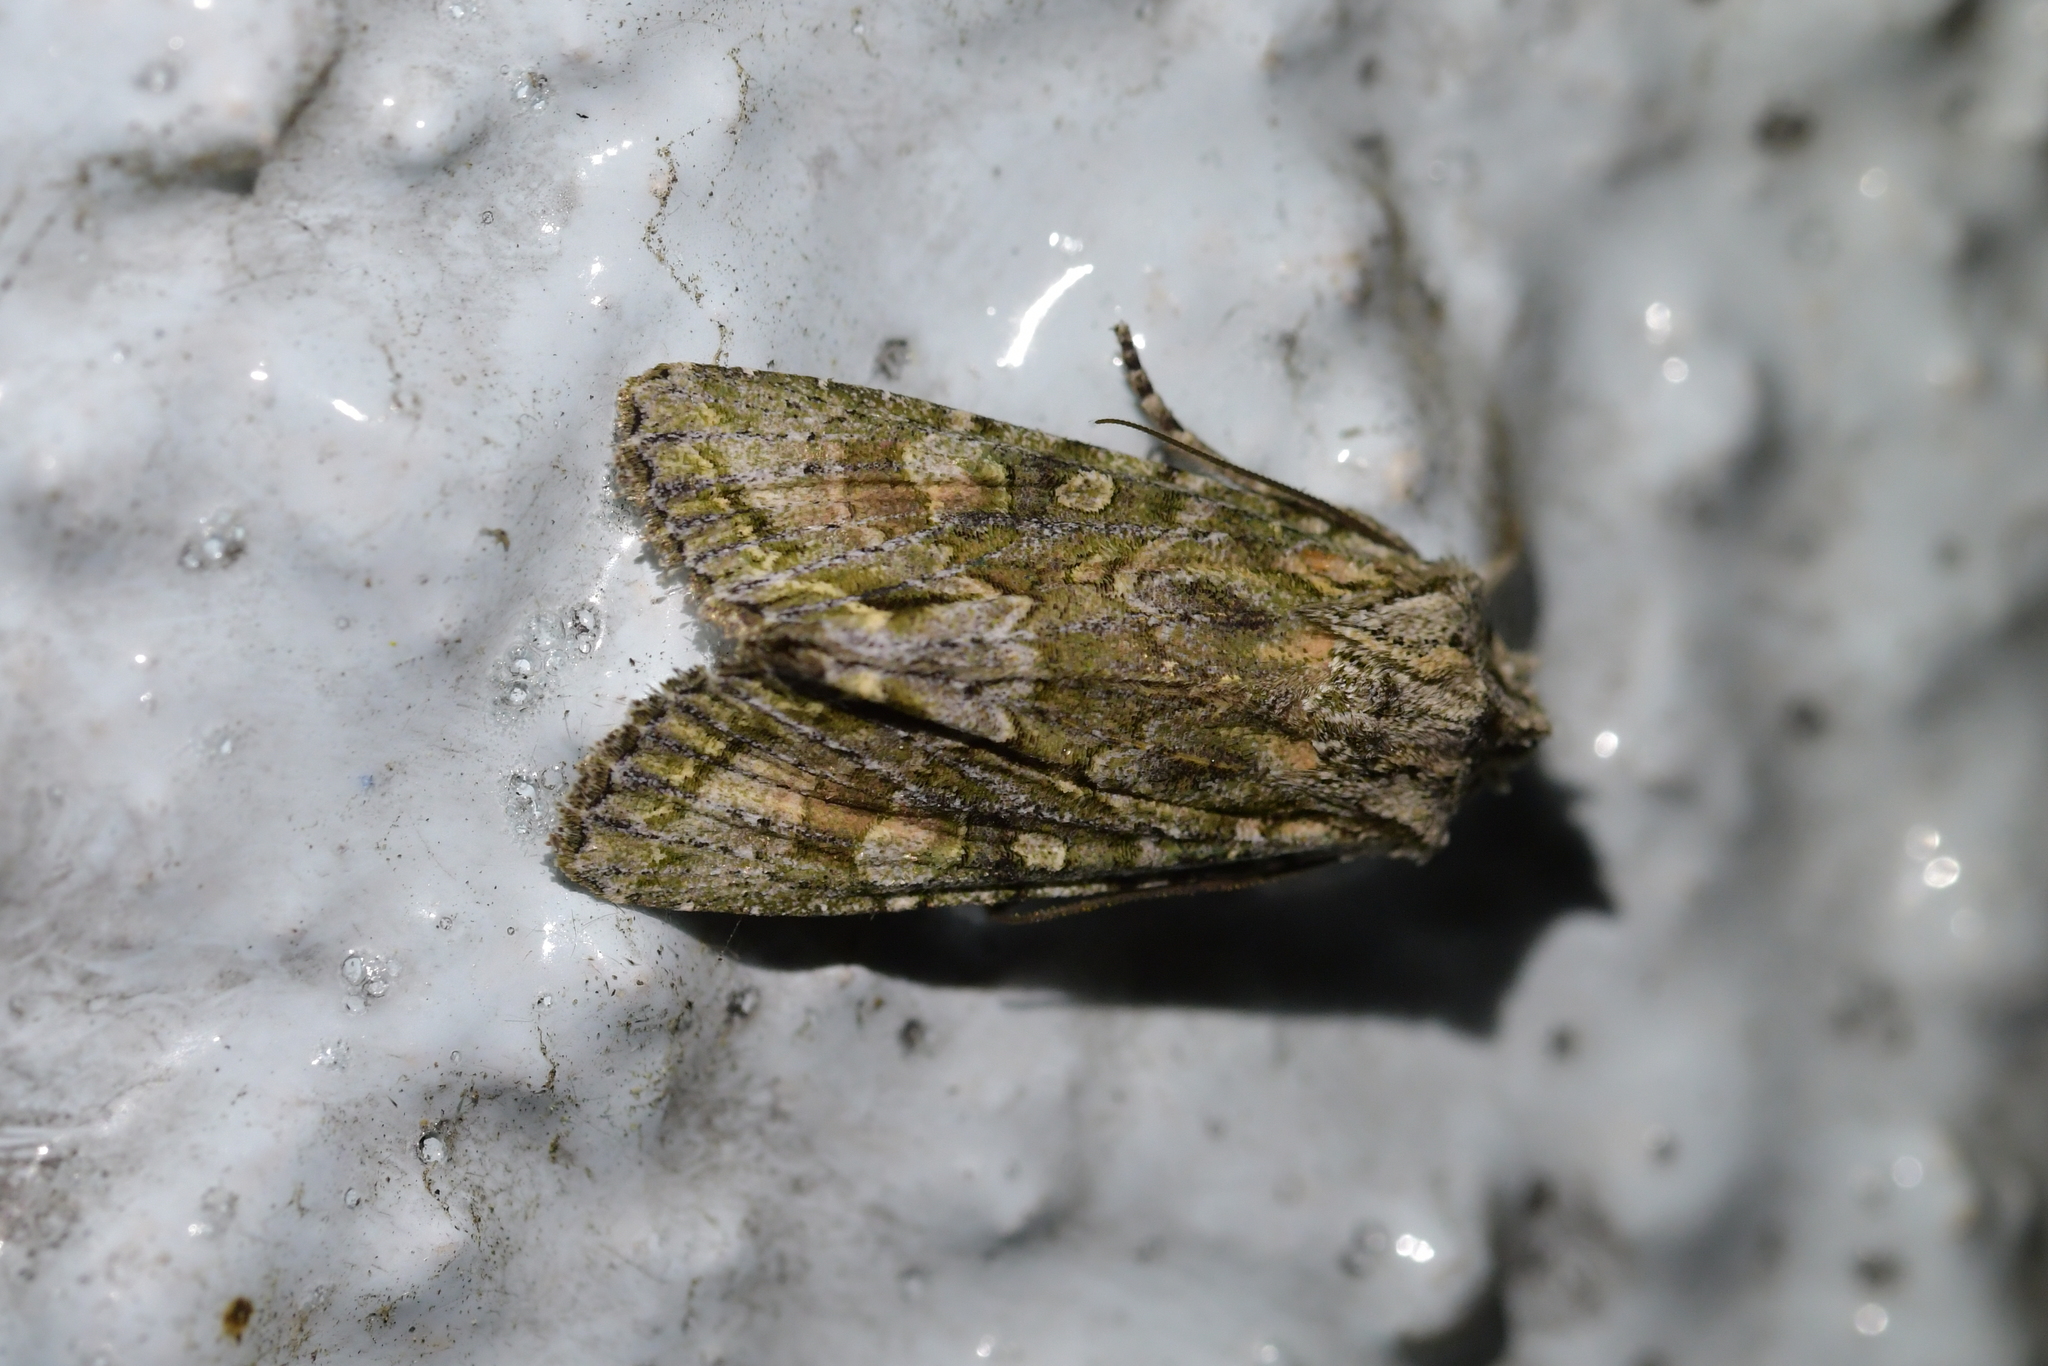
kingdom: Animalia
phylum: Arthropoda
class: Insecta
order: Lepidoptera
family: Noctuidae
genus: Ichneutica
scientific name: Ichneutica mutans
